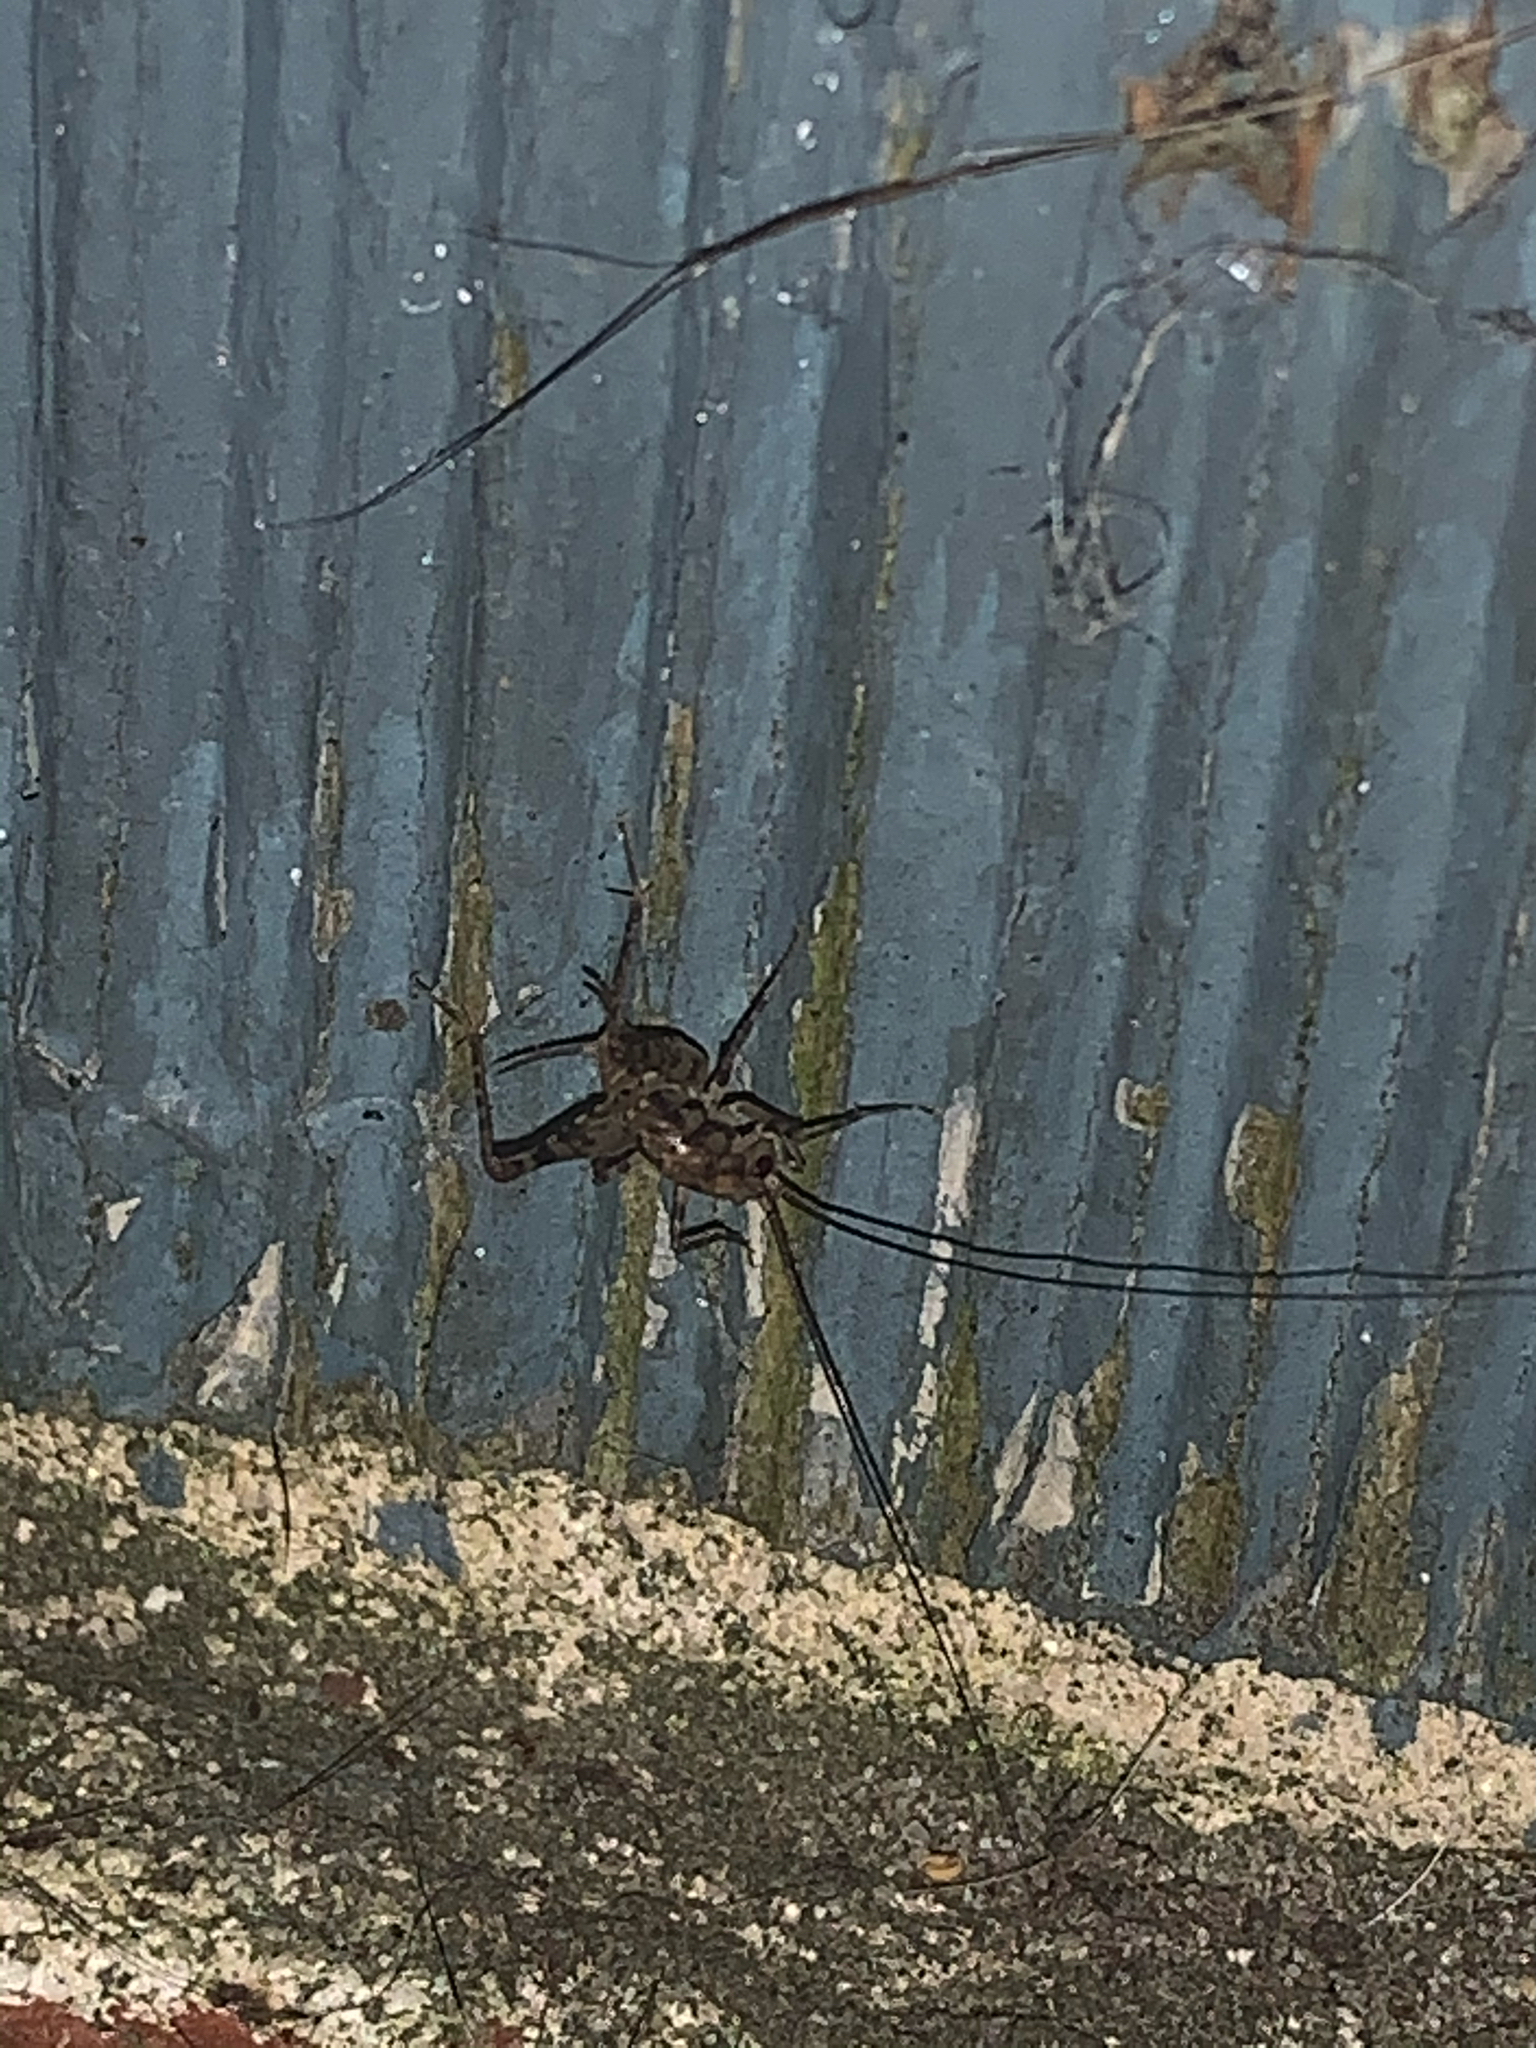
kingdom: Animalia
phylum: Arthropoda
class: Insecta
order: Orthoptera
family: Rhaphidophoridae
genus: Tachycines
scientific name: Tachycines asynamorus
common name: Greenhouse camel cricket
